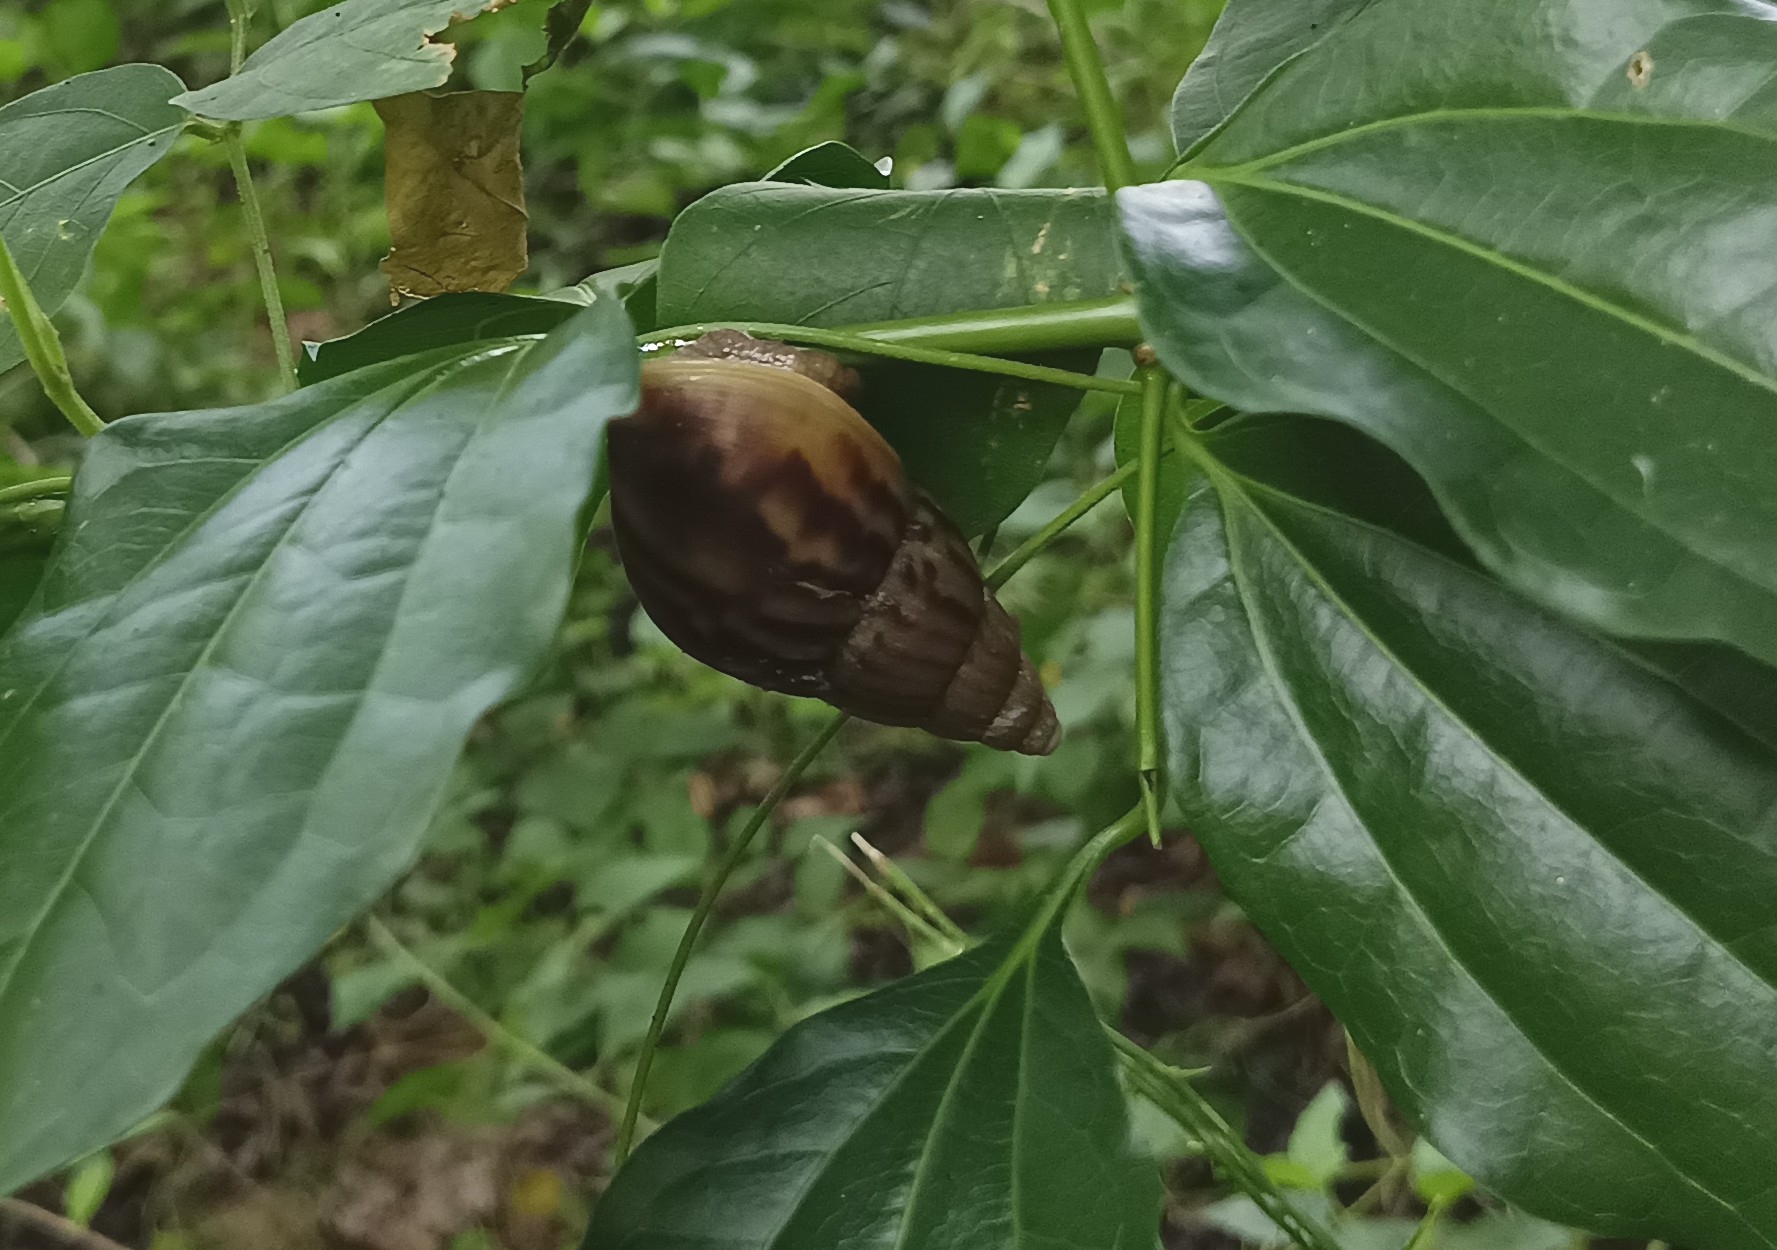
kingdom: Animalia
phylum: Mollusca
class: Gastropoda
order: Stylommatophora
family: Achatinidae
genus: Lissachatina
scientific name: Lissachatina fulica
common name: Giant african snail
